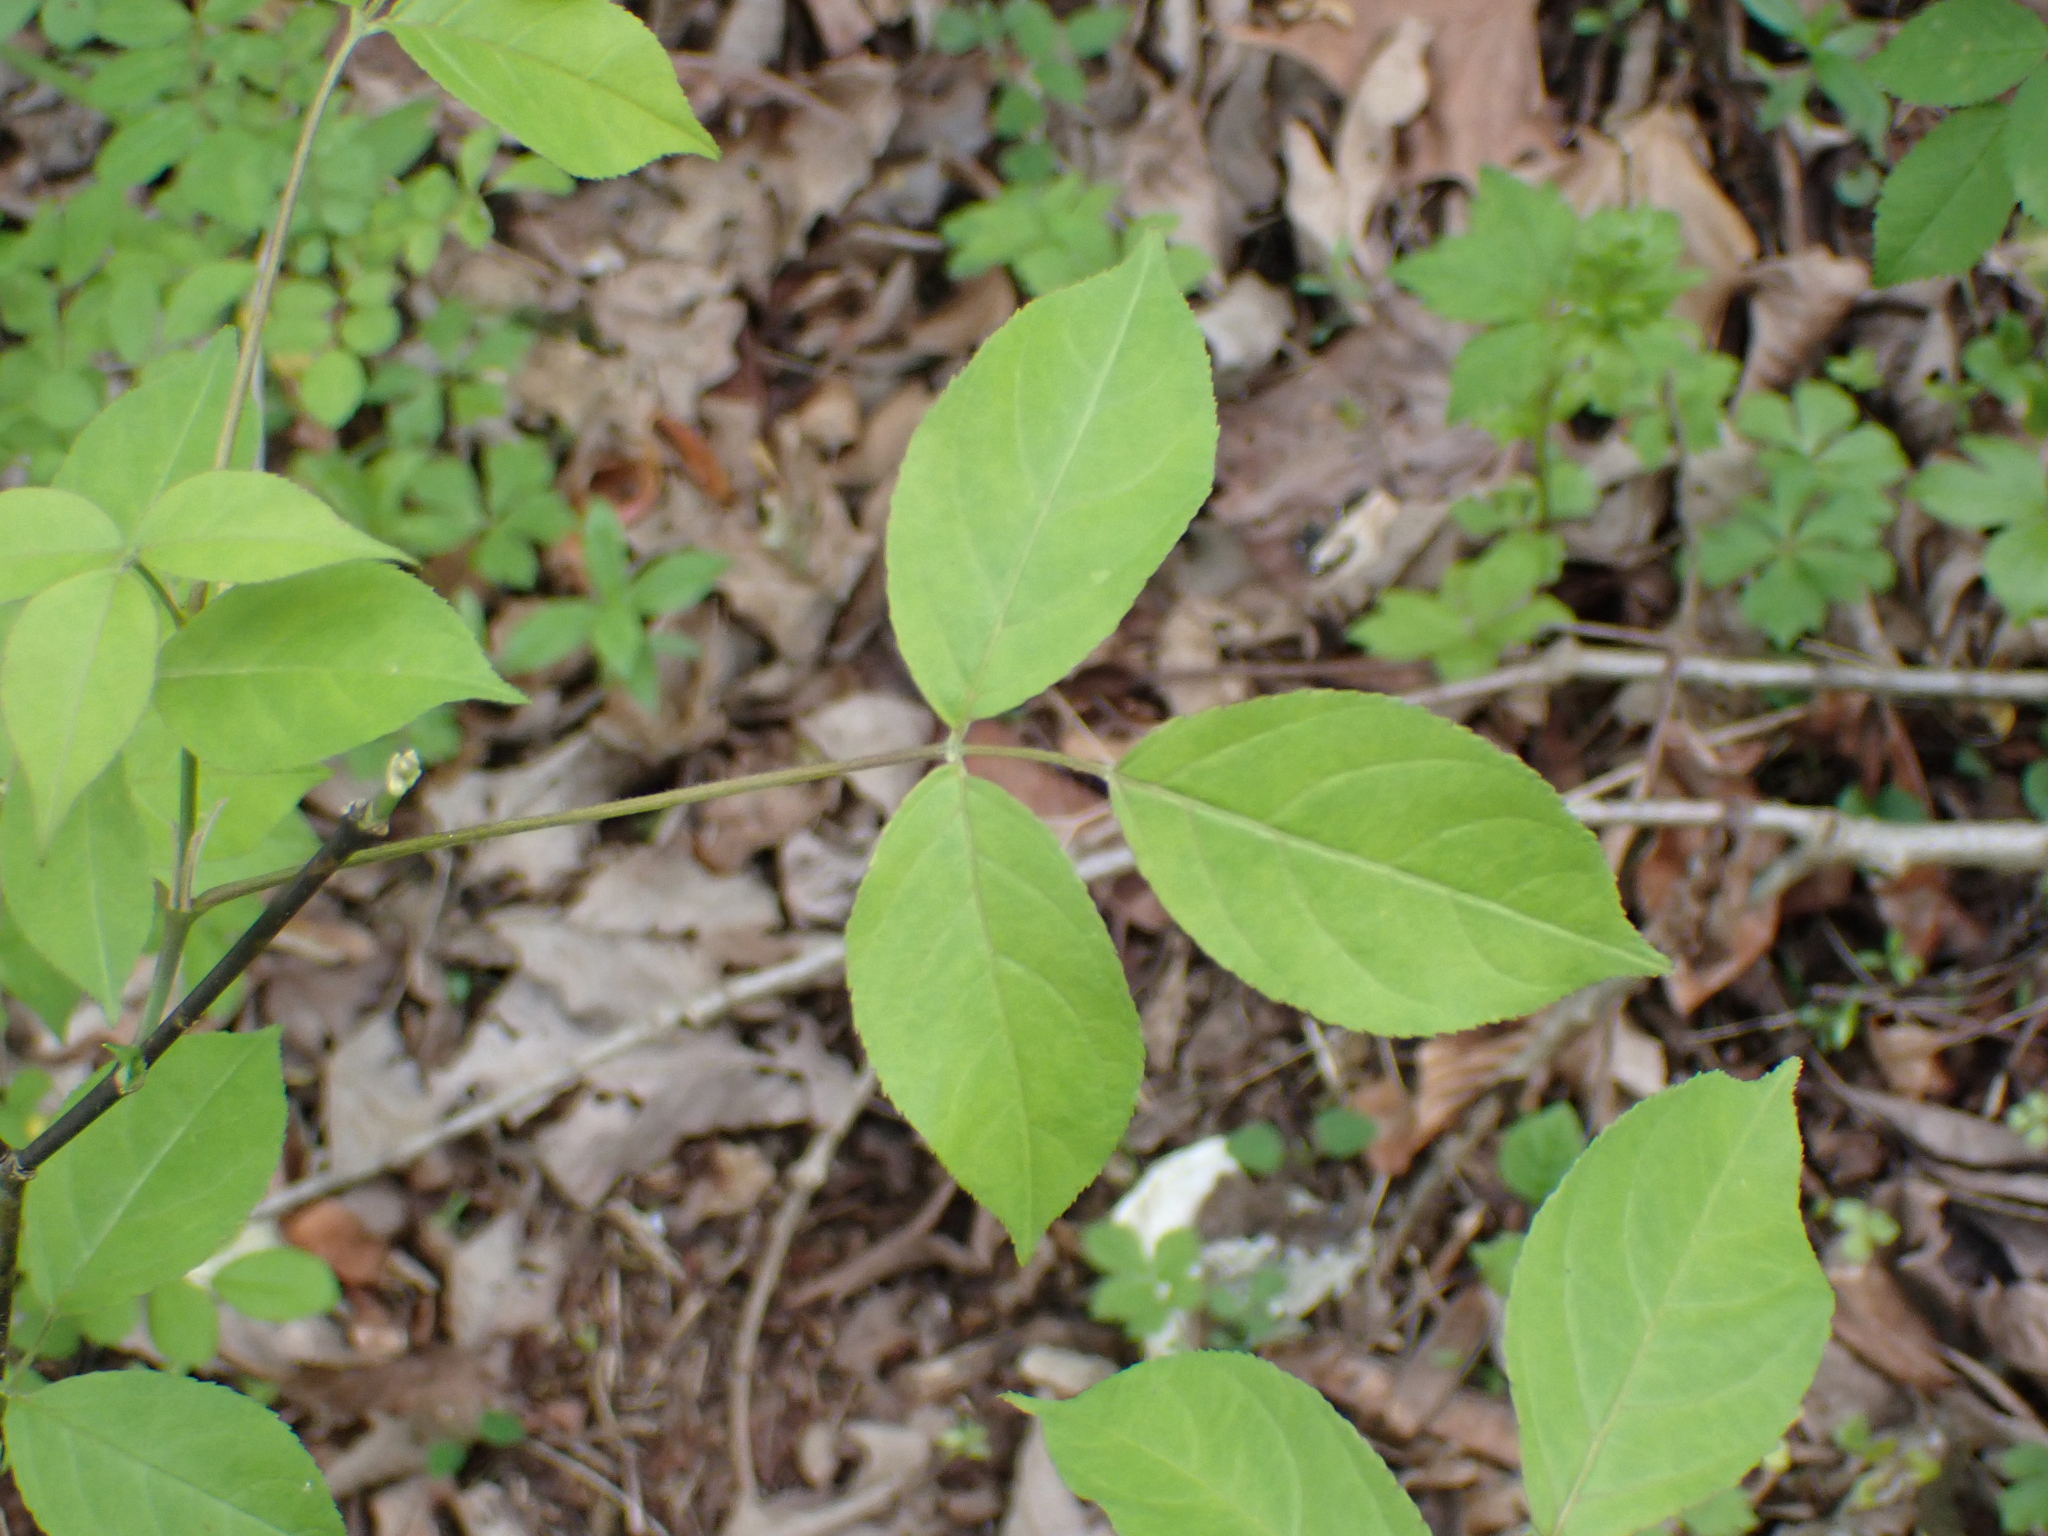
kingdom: Plantae
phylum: Tracheophyta
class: Magnoliopsida
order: Crossosomatales
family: Staphyleaceae
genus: Staphylea
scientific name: Staphylea trifolia
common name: American bladdernut
